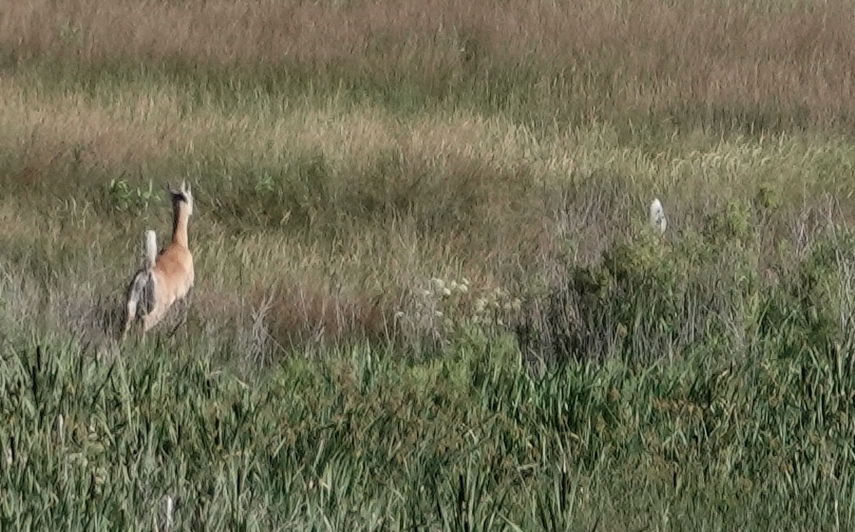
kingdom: Animalia
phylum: Chordata
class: Mammalia
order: Artiodactyla
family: Cervidae
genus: Odocoileus
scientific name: Odocoileus virginianus
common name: White-tailed deer
